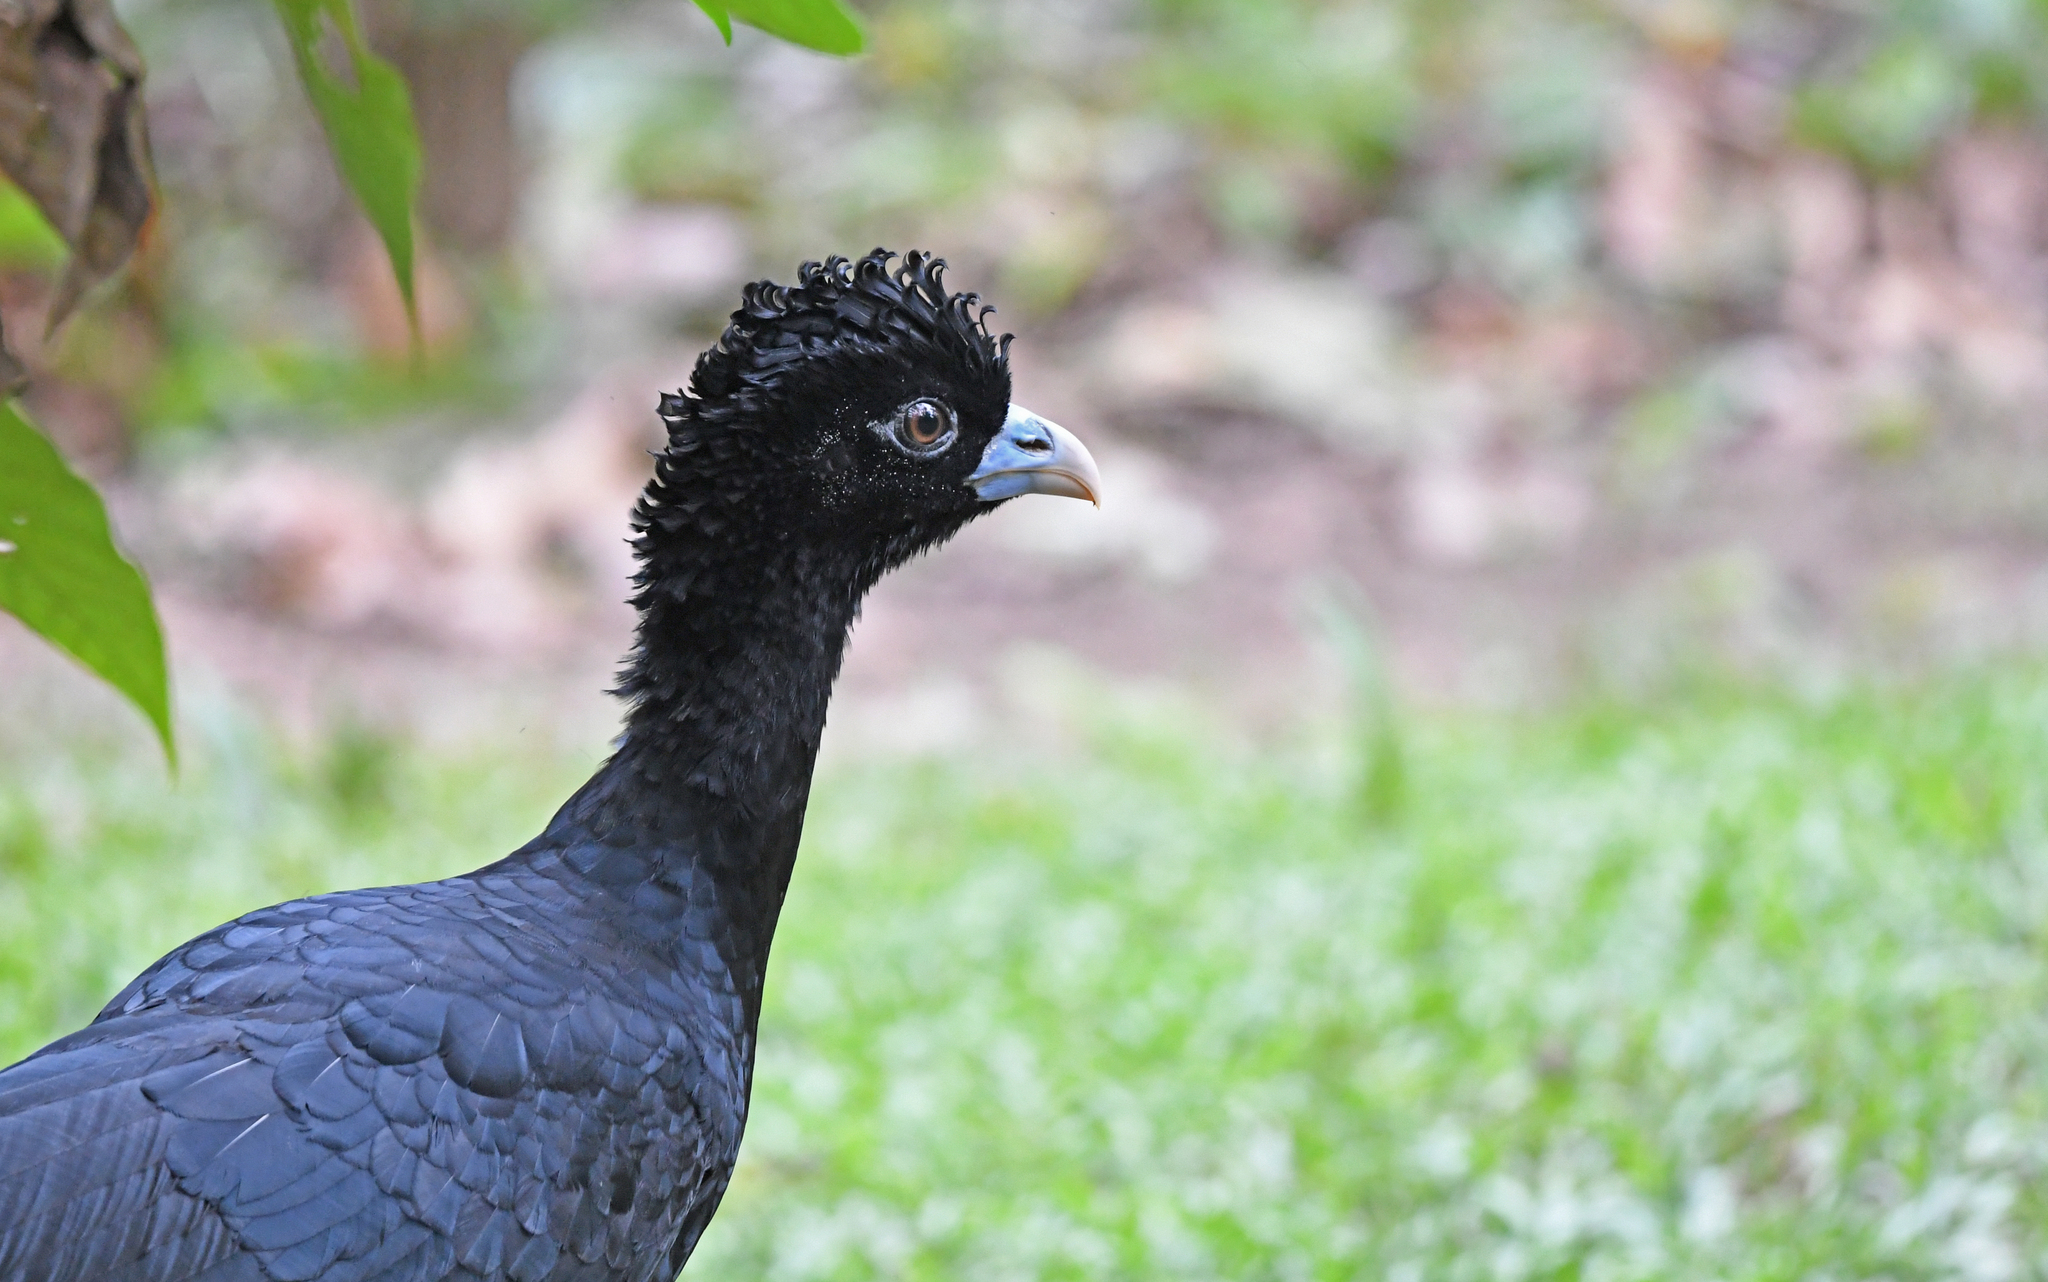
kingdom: Animalia
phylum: Chordata
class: Aves
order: Galliformes
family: Cracidae
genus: Crax
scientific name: Crax alberti
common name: Blue-billed curassow
